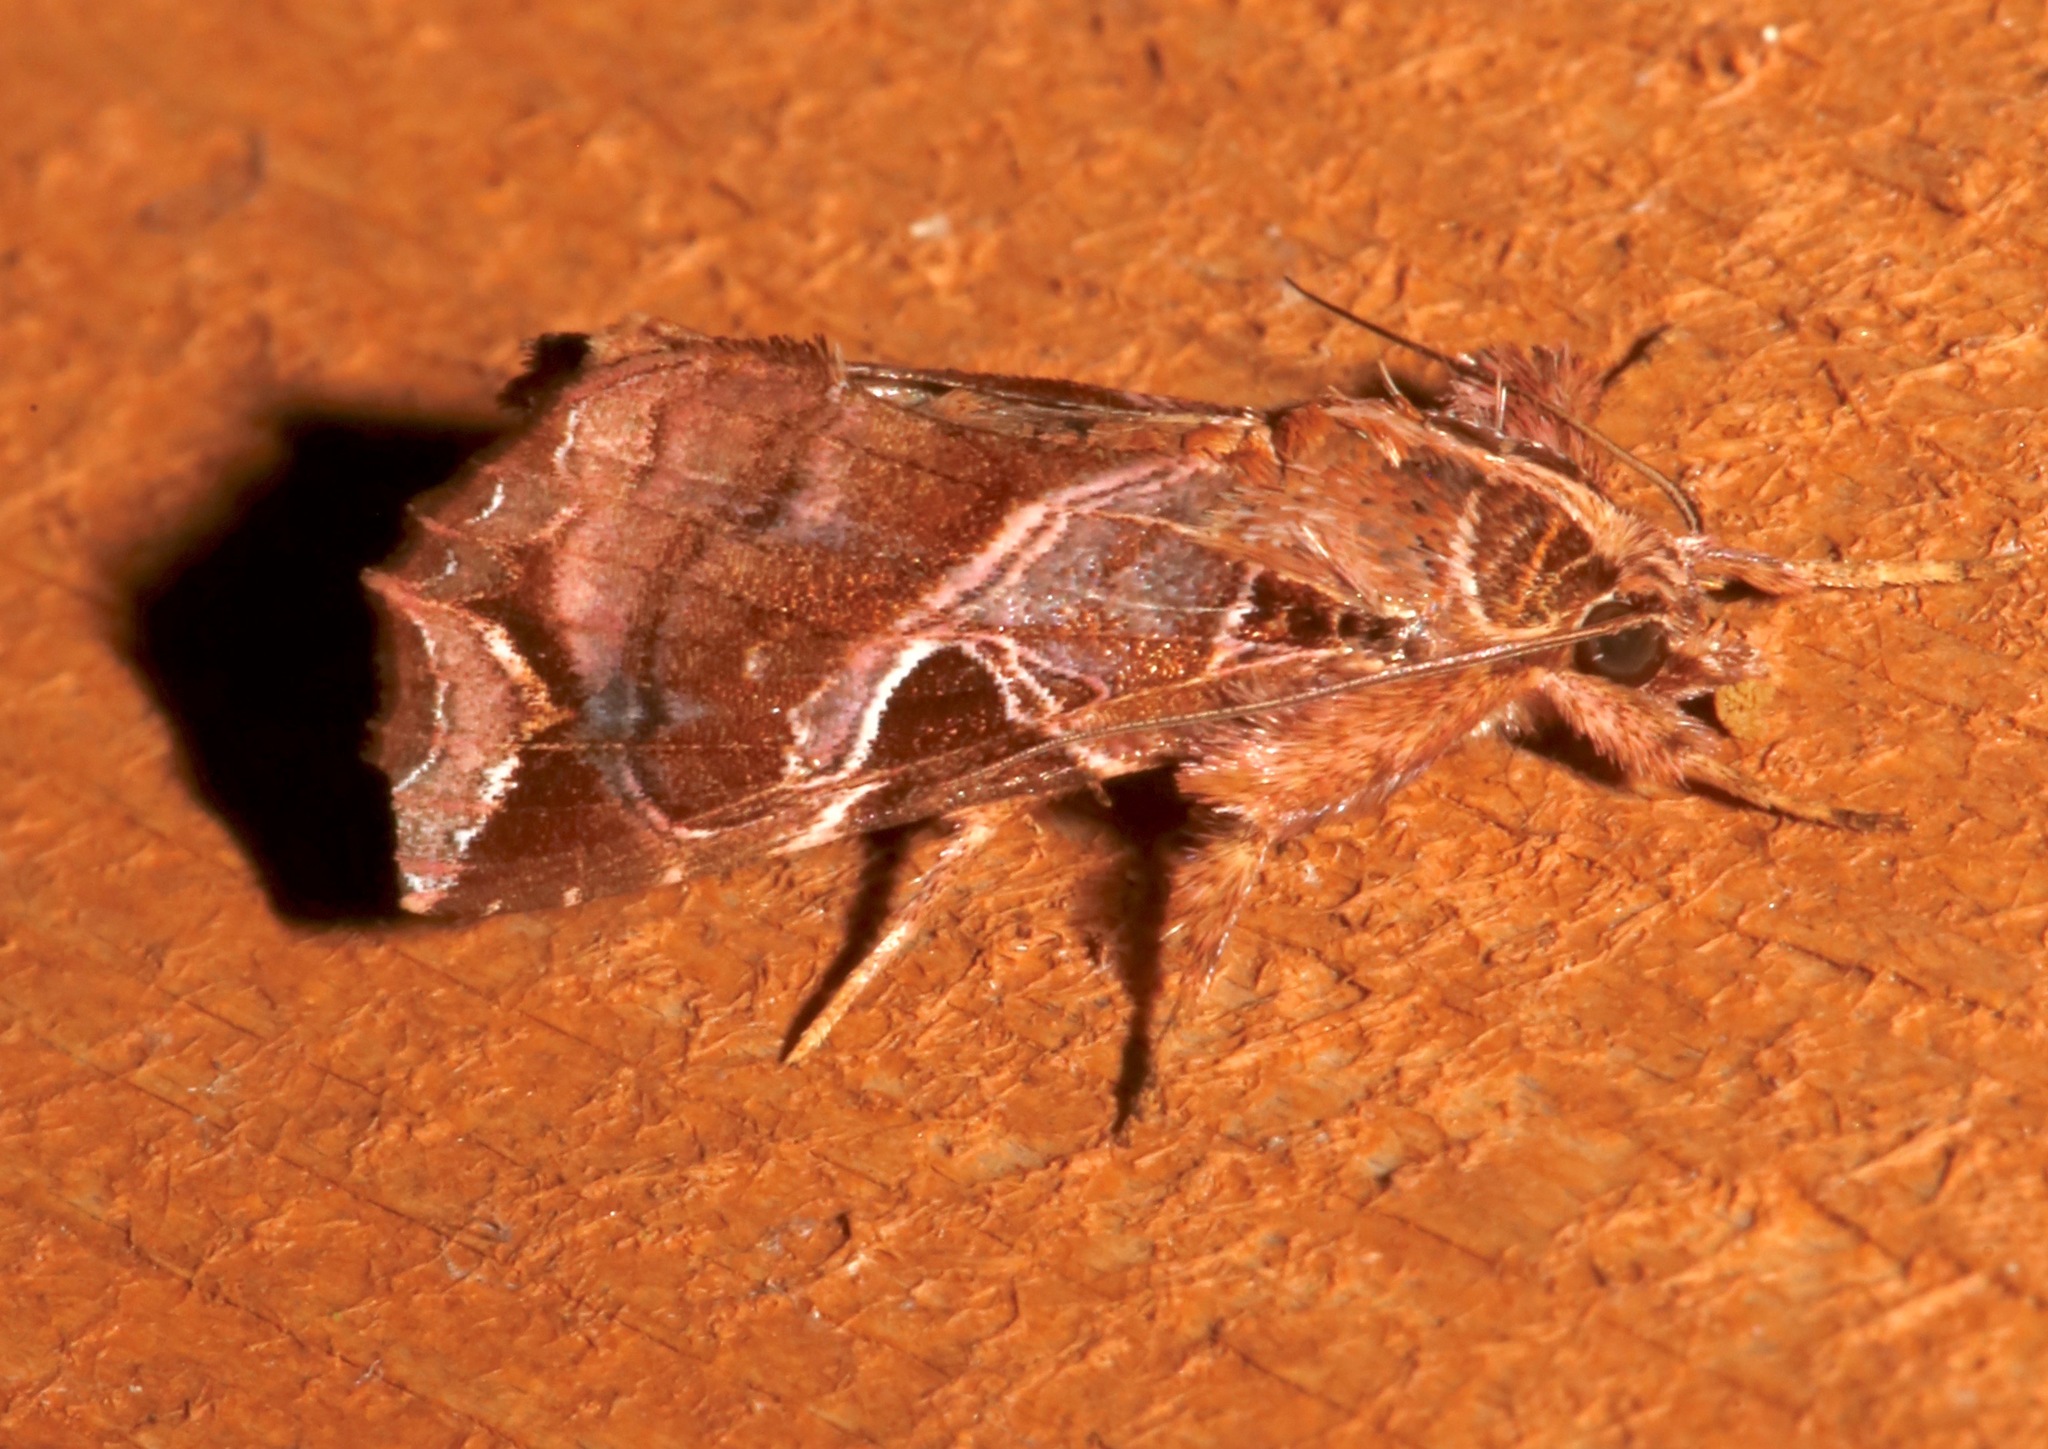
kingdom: Animalia
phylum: Arthropoda
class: Insecta
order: Lepidoptera
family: Noctuidae
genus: Callopistria
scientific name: Callopistria floridensis
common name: Florida fern moth
